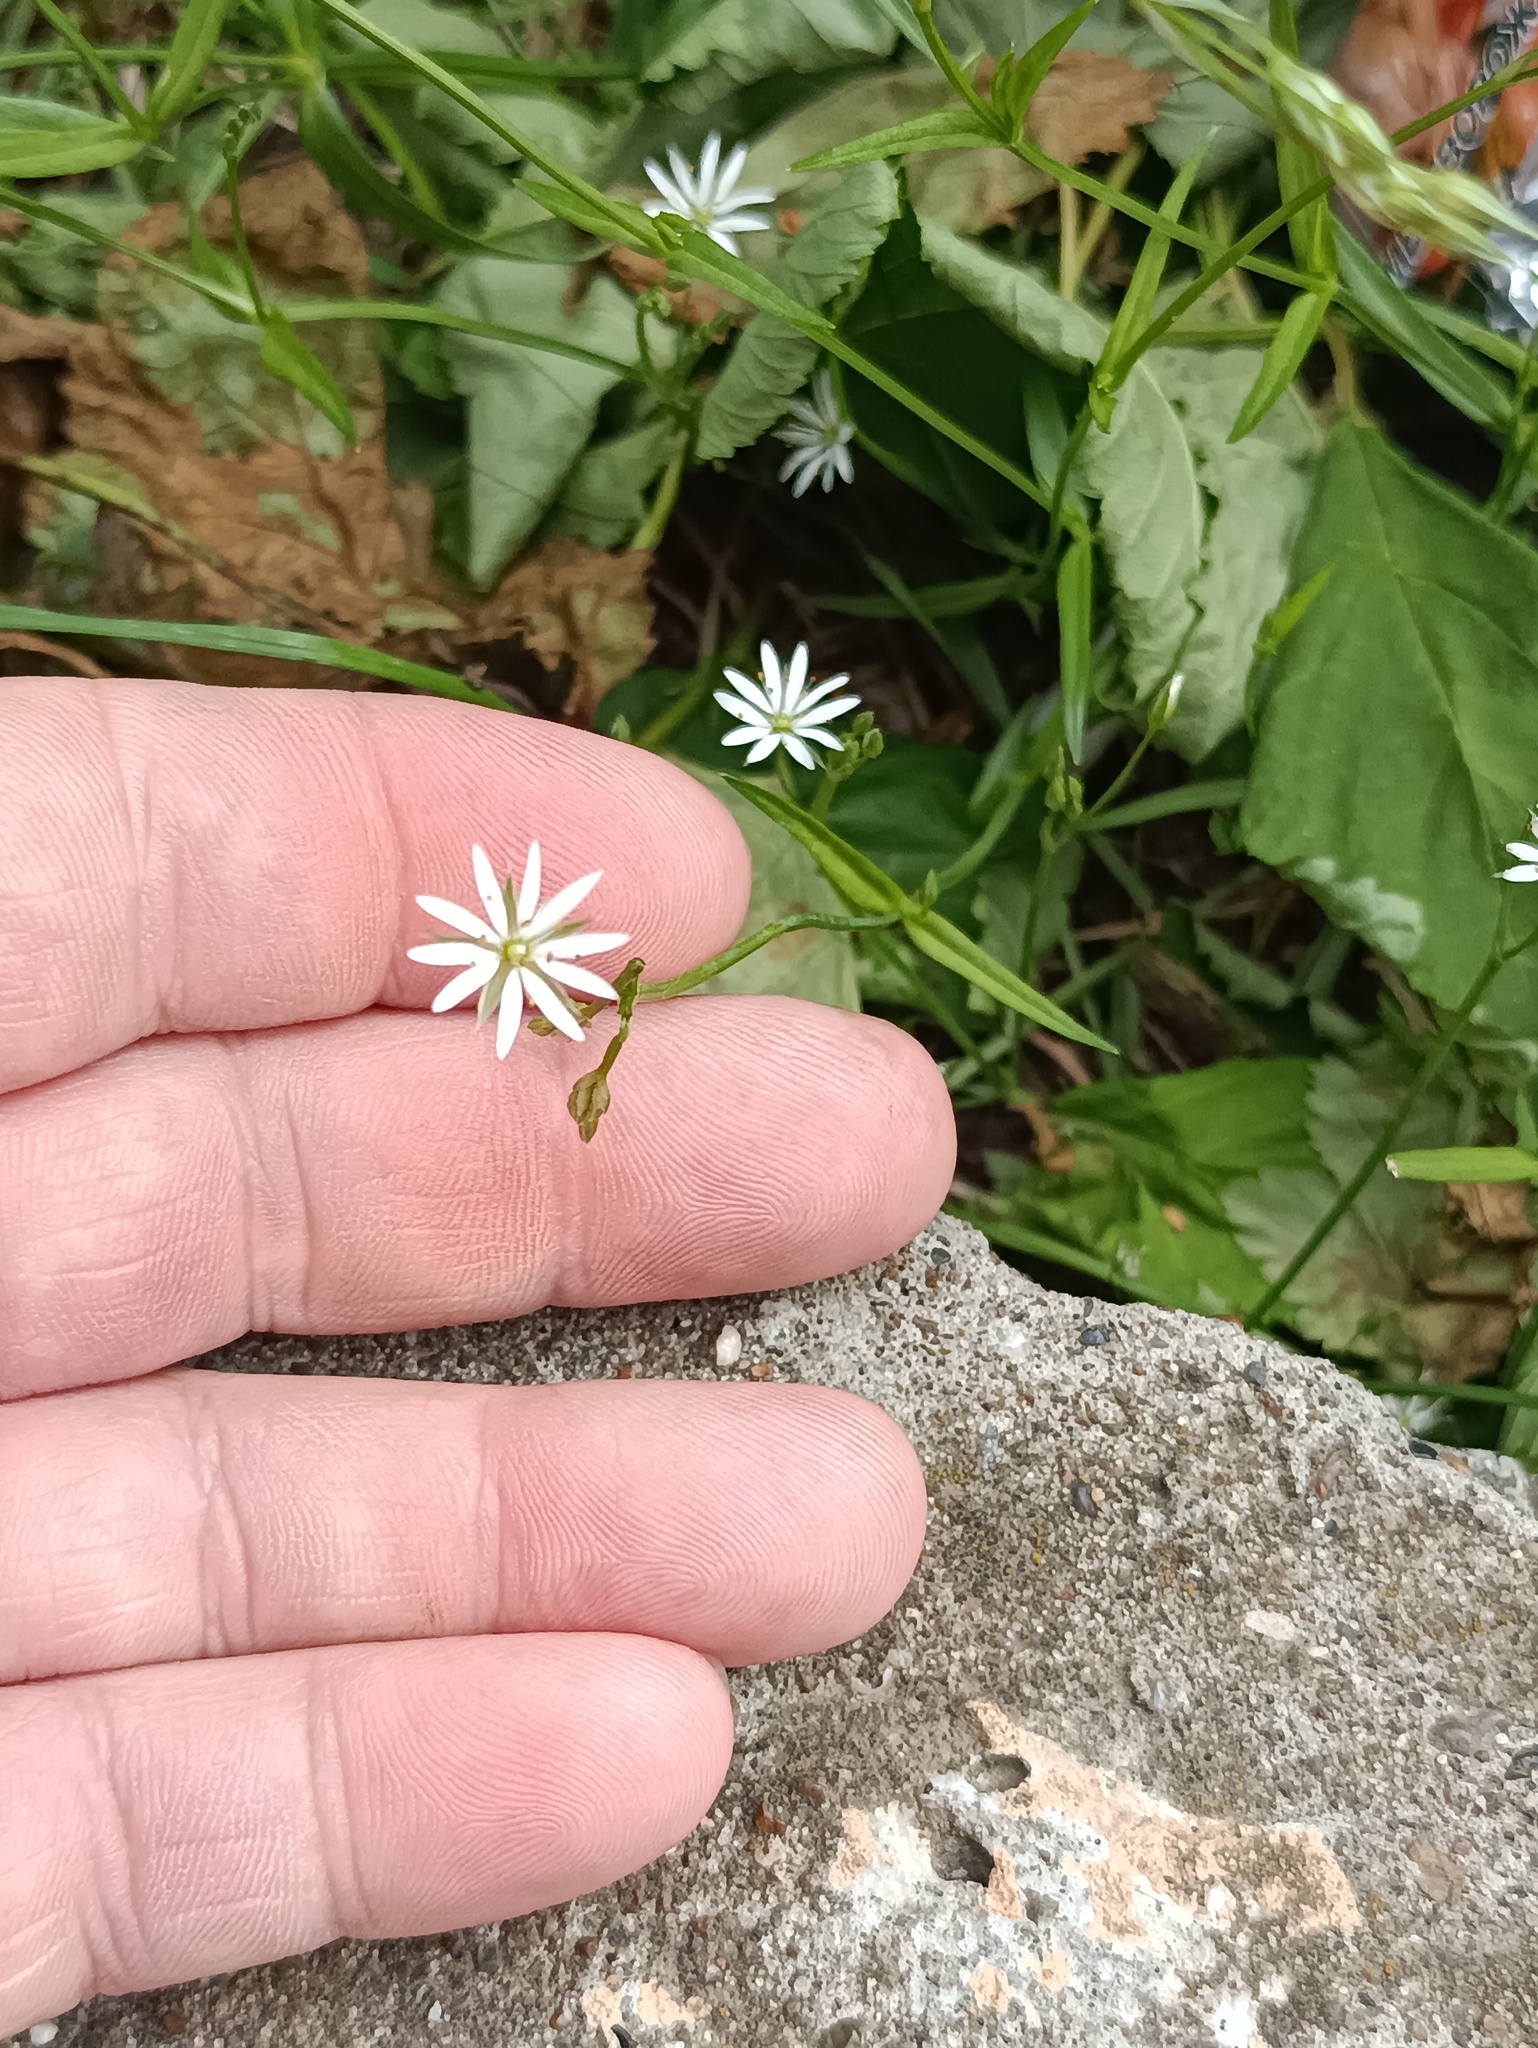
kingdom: Plantae
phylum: Tracheophyta
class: Magnoliopsida
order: Caryophyllales
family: Caryophyllaceae
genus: Stellaria
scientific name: Stellaria graminea
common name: Grass-like starwort
